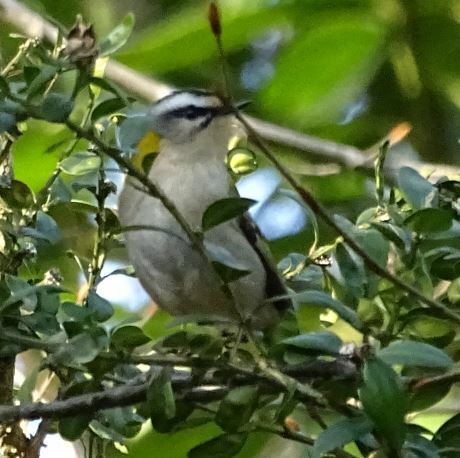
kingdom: Animalia
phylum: Chordata
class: Aves
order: Passeriformes
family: Regulidae
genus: Regulus
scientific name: Regulus ignicapilla
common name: Firecrest
